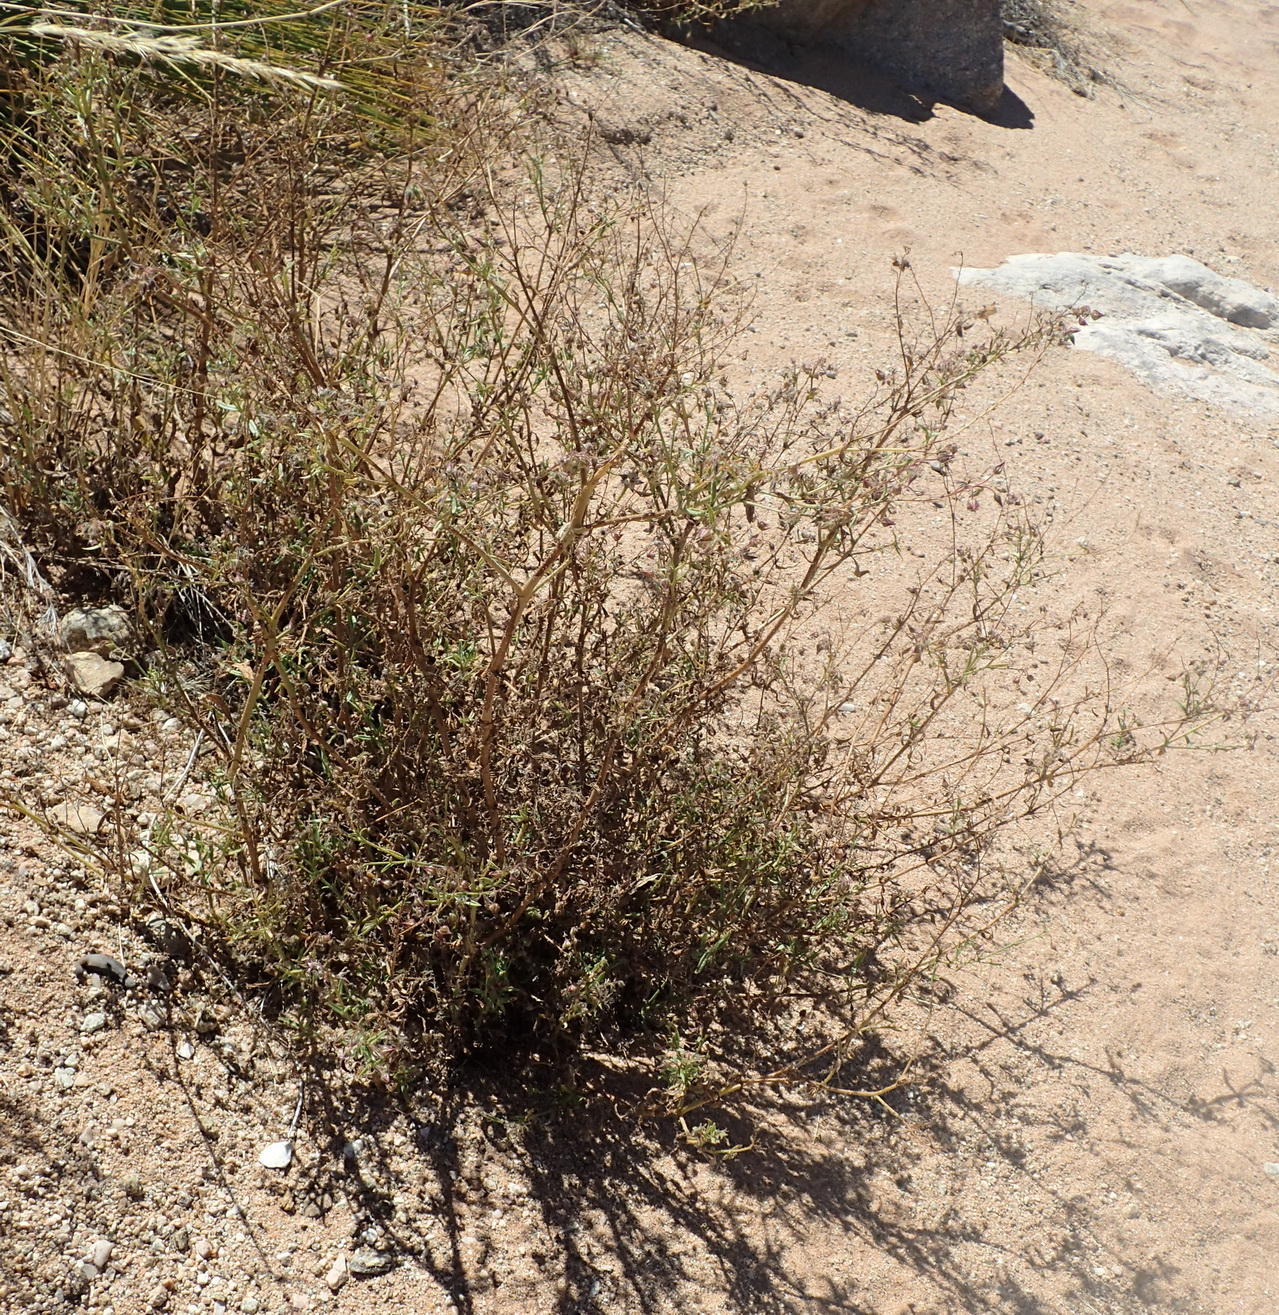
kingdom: Plantae
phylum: Tracheophyta
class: Magnoliopsida
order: Boraginales
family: Boraginaceae
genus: Trichodesma
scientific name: Trichodesma africanum
